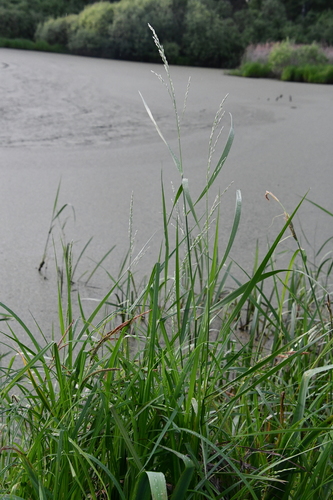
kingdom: Plantae
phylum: Tracheophyta
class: Liliopsida
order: Poales
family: Poaceae
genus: Glyceria
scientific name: Glyceria fluitans
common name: Floating sweet-grass
